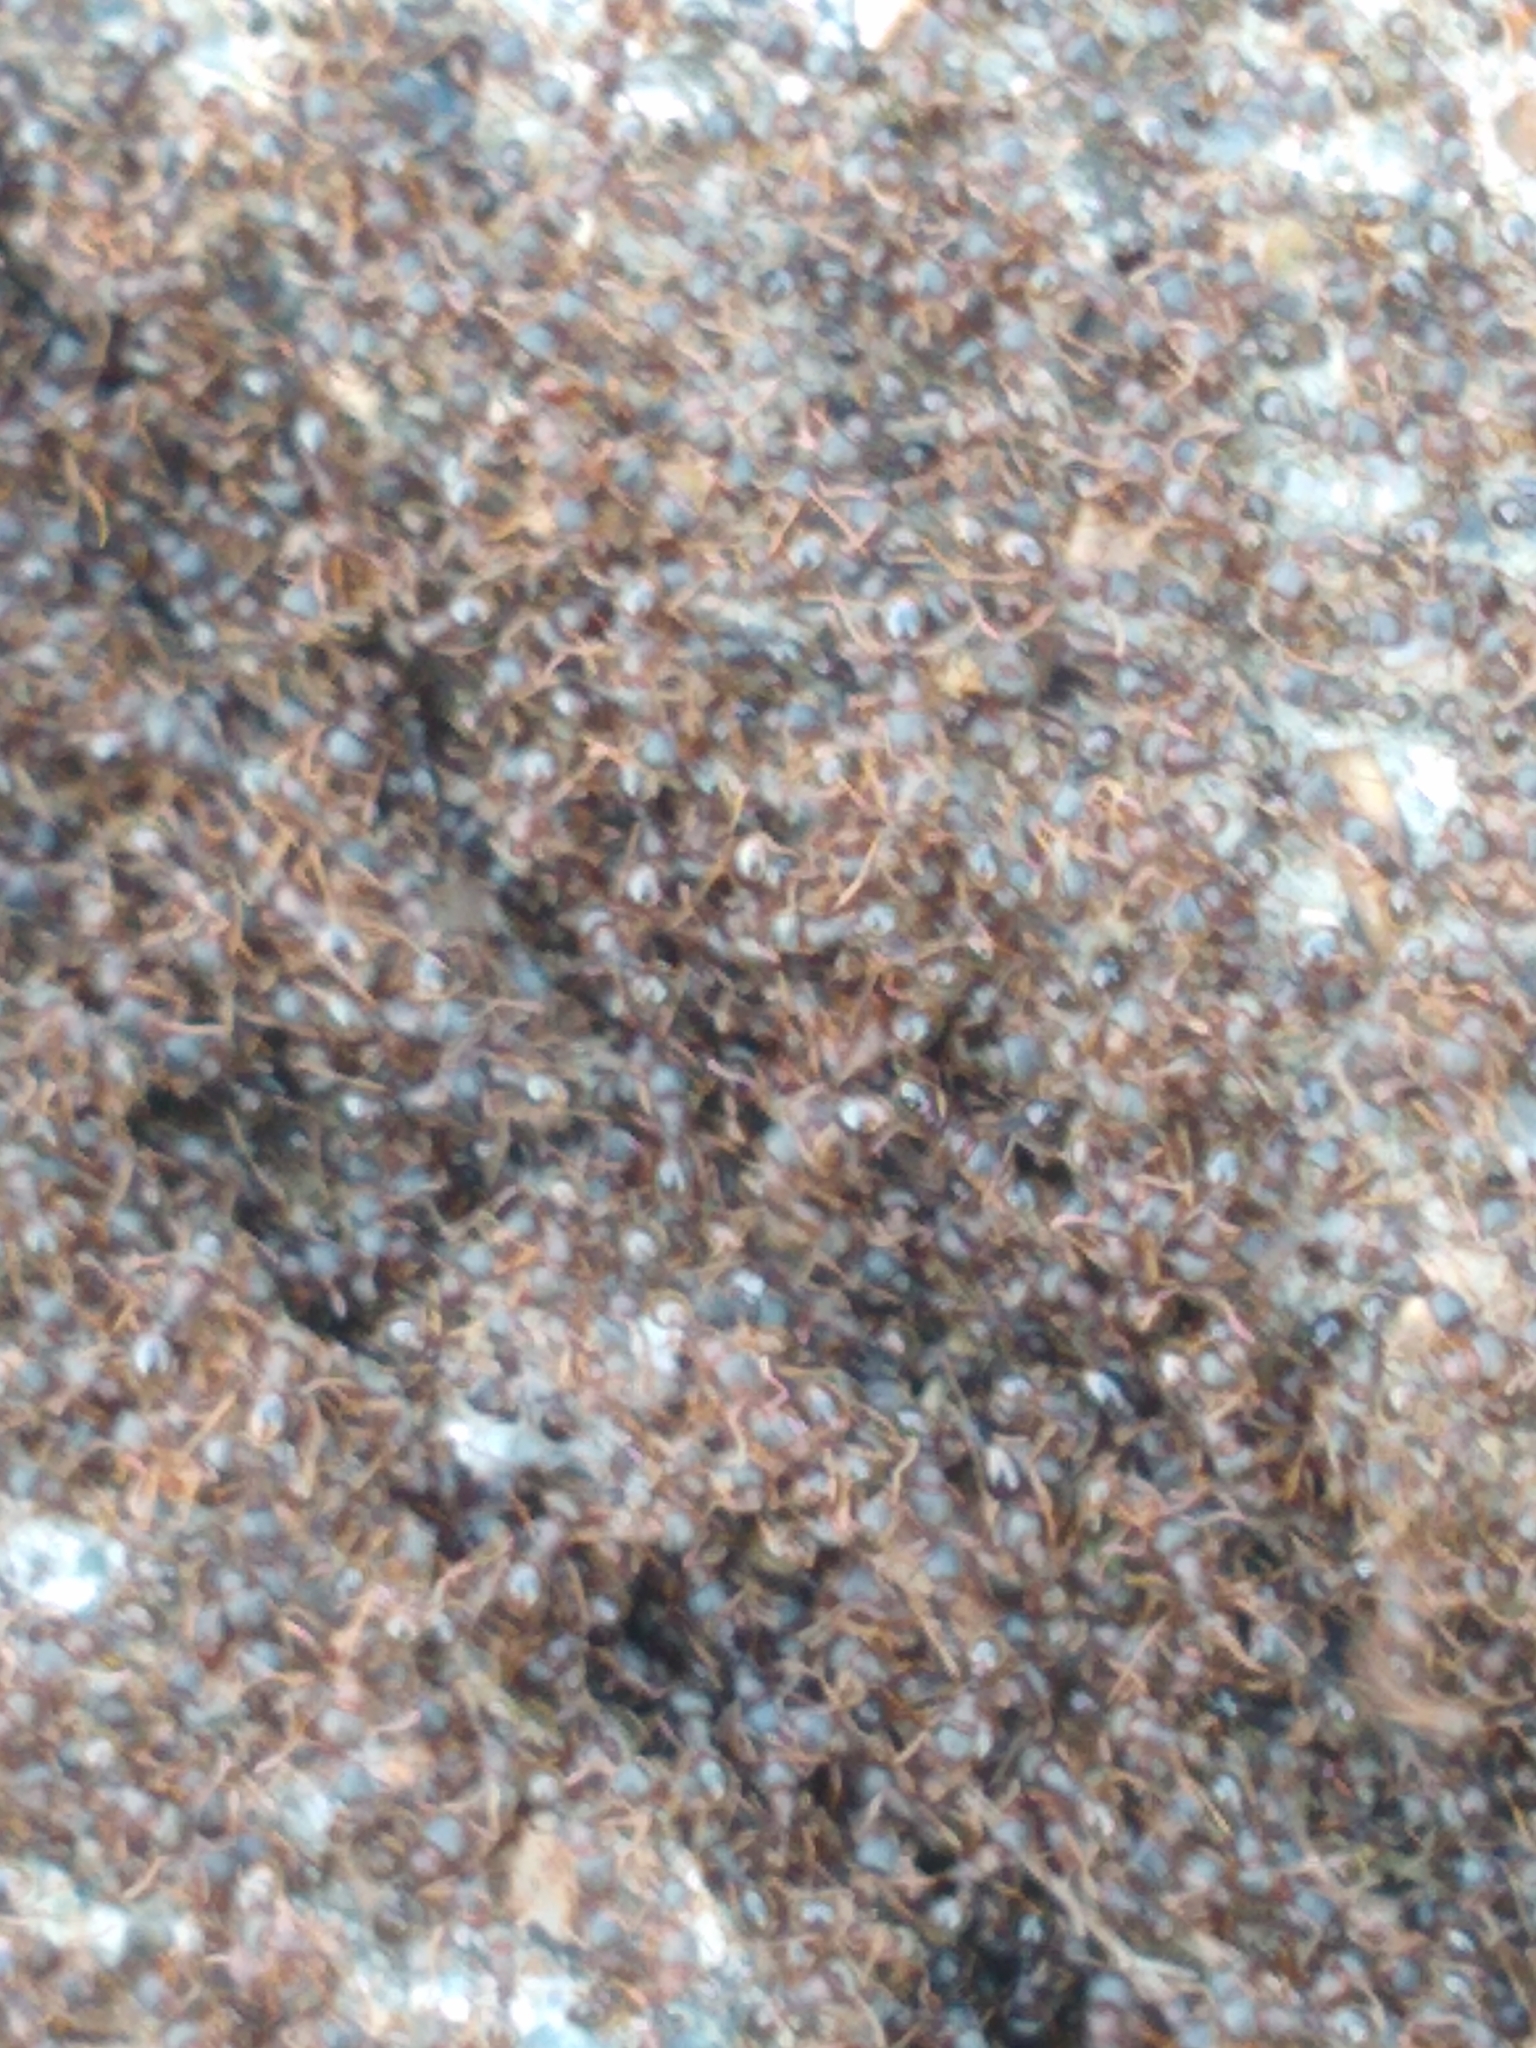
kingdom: Animalia
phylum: Arthropoda
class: Insecta
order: Hymenoptera
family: Formicidae
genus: Tetramorium
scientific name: Tetramorium immigrans
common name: Pavement ant
